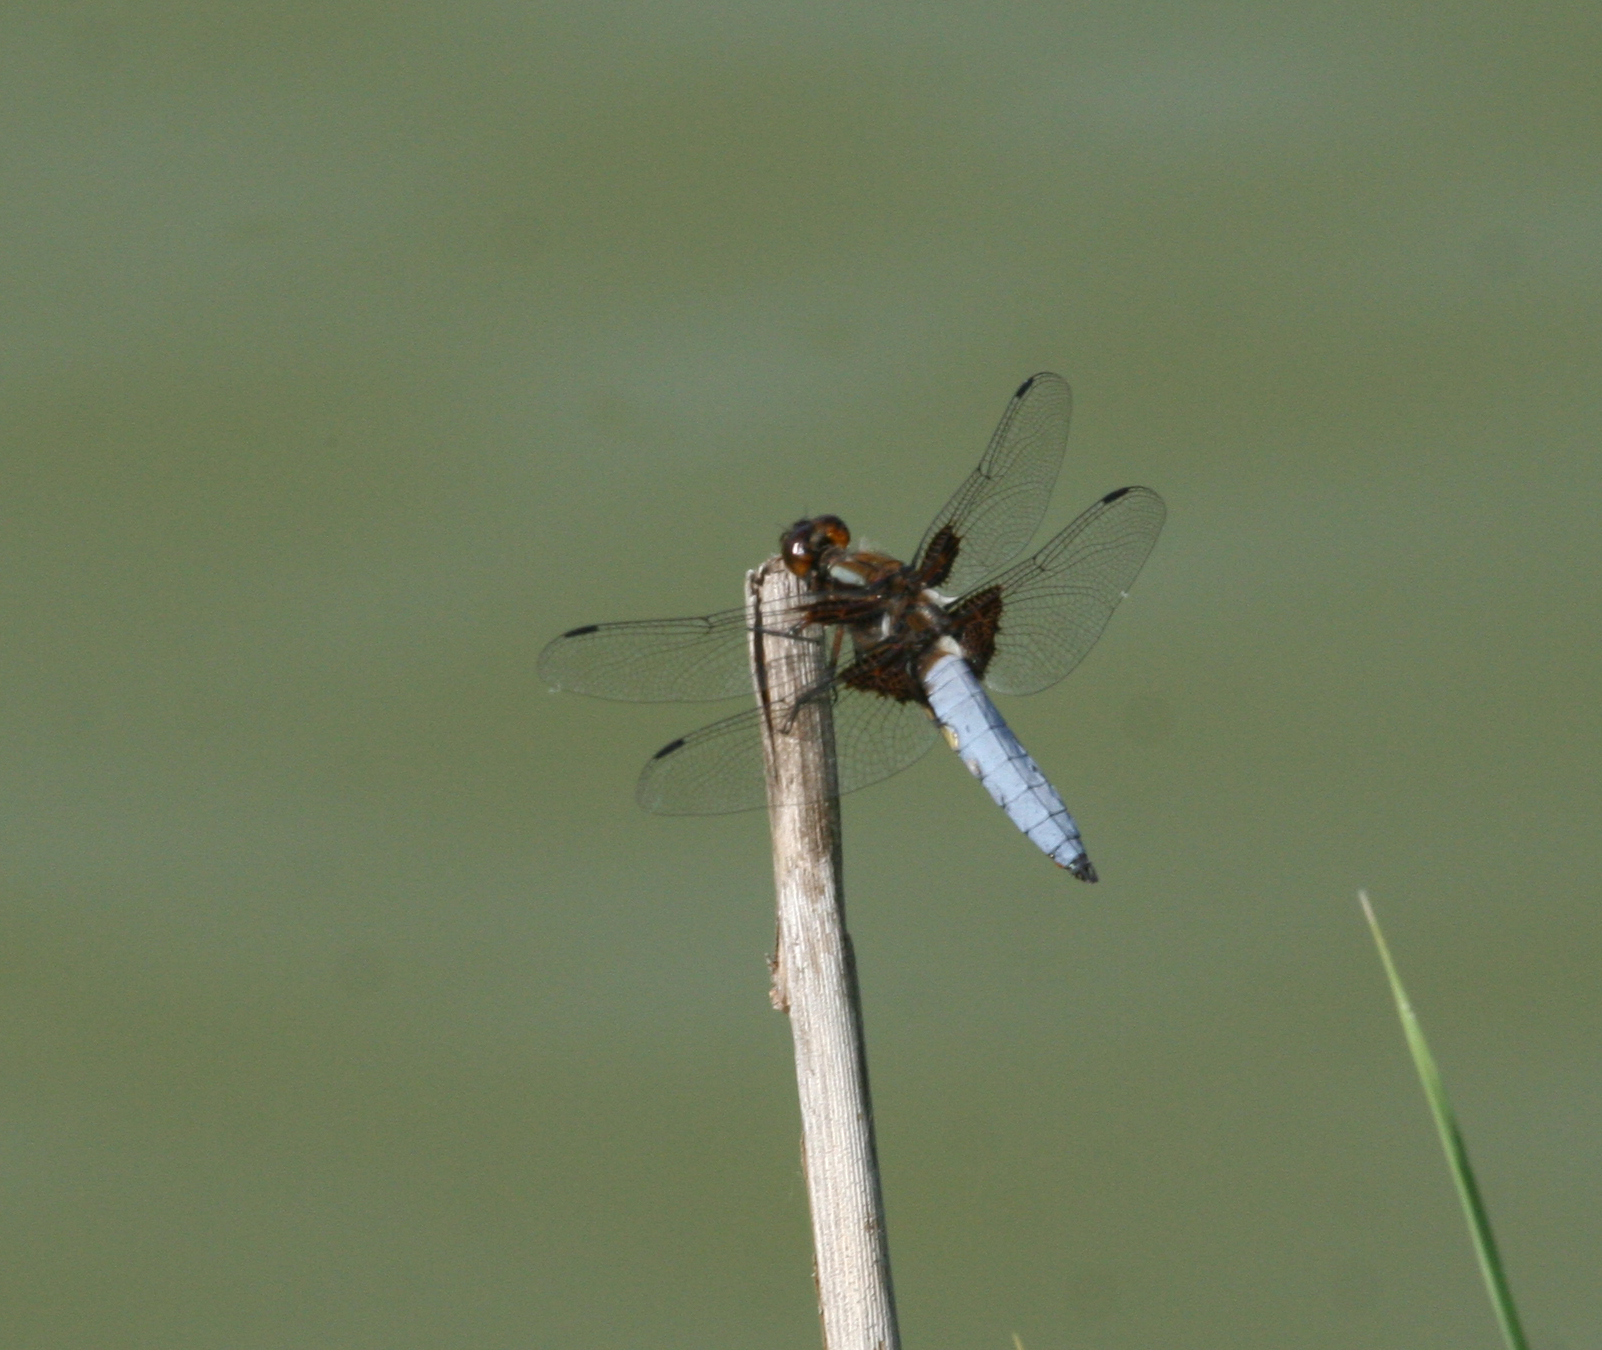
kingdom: Animalia
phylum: Arthropoda
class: Insecta
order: Odonata
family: Libellulidae
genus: Libellula
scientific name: Libellula depressa
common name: Broad-bodied chaser
